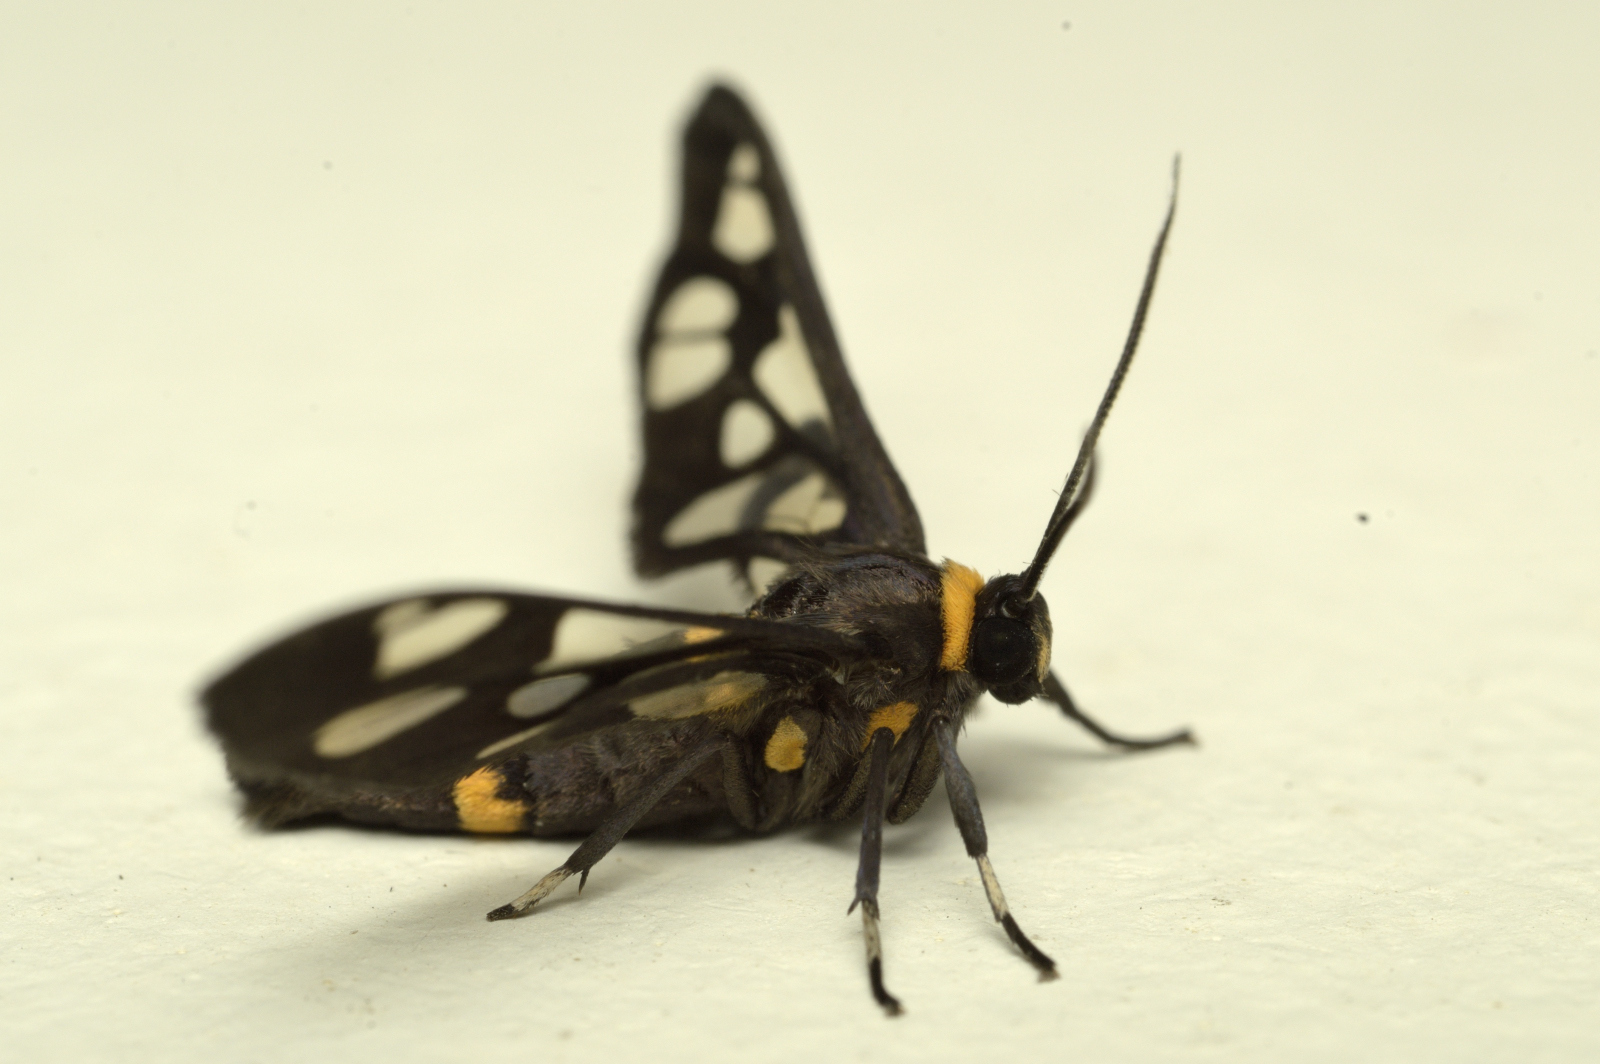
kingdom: Animalia
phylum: Arthropoda
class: Insecta
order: Lepidoptera
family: Erebidae
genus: Syntomoides
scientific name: Syntomoides imaon
